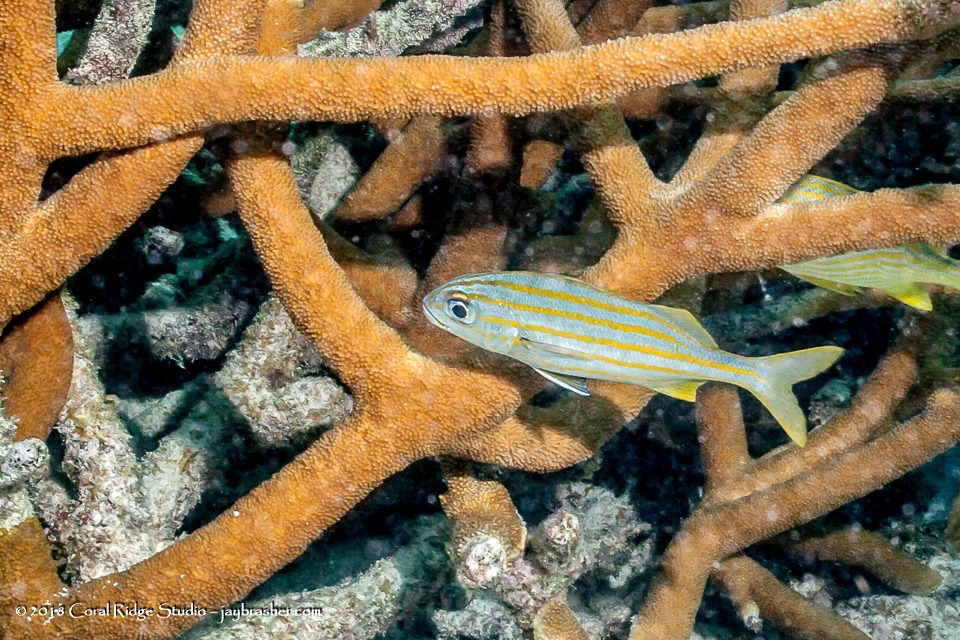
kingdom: Animalia
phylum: Chordata
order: Perciformes
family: Haemulidae
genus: Haemulon
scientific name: Haemulon chrysargyreum
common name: Smallmouth grunt
